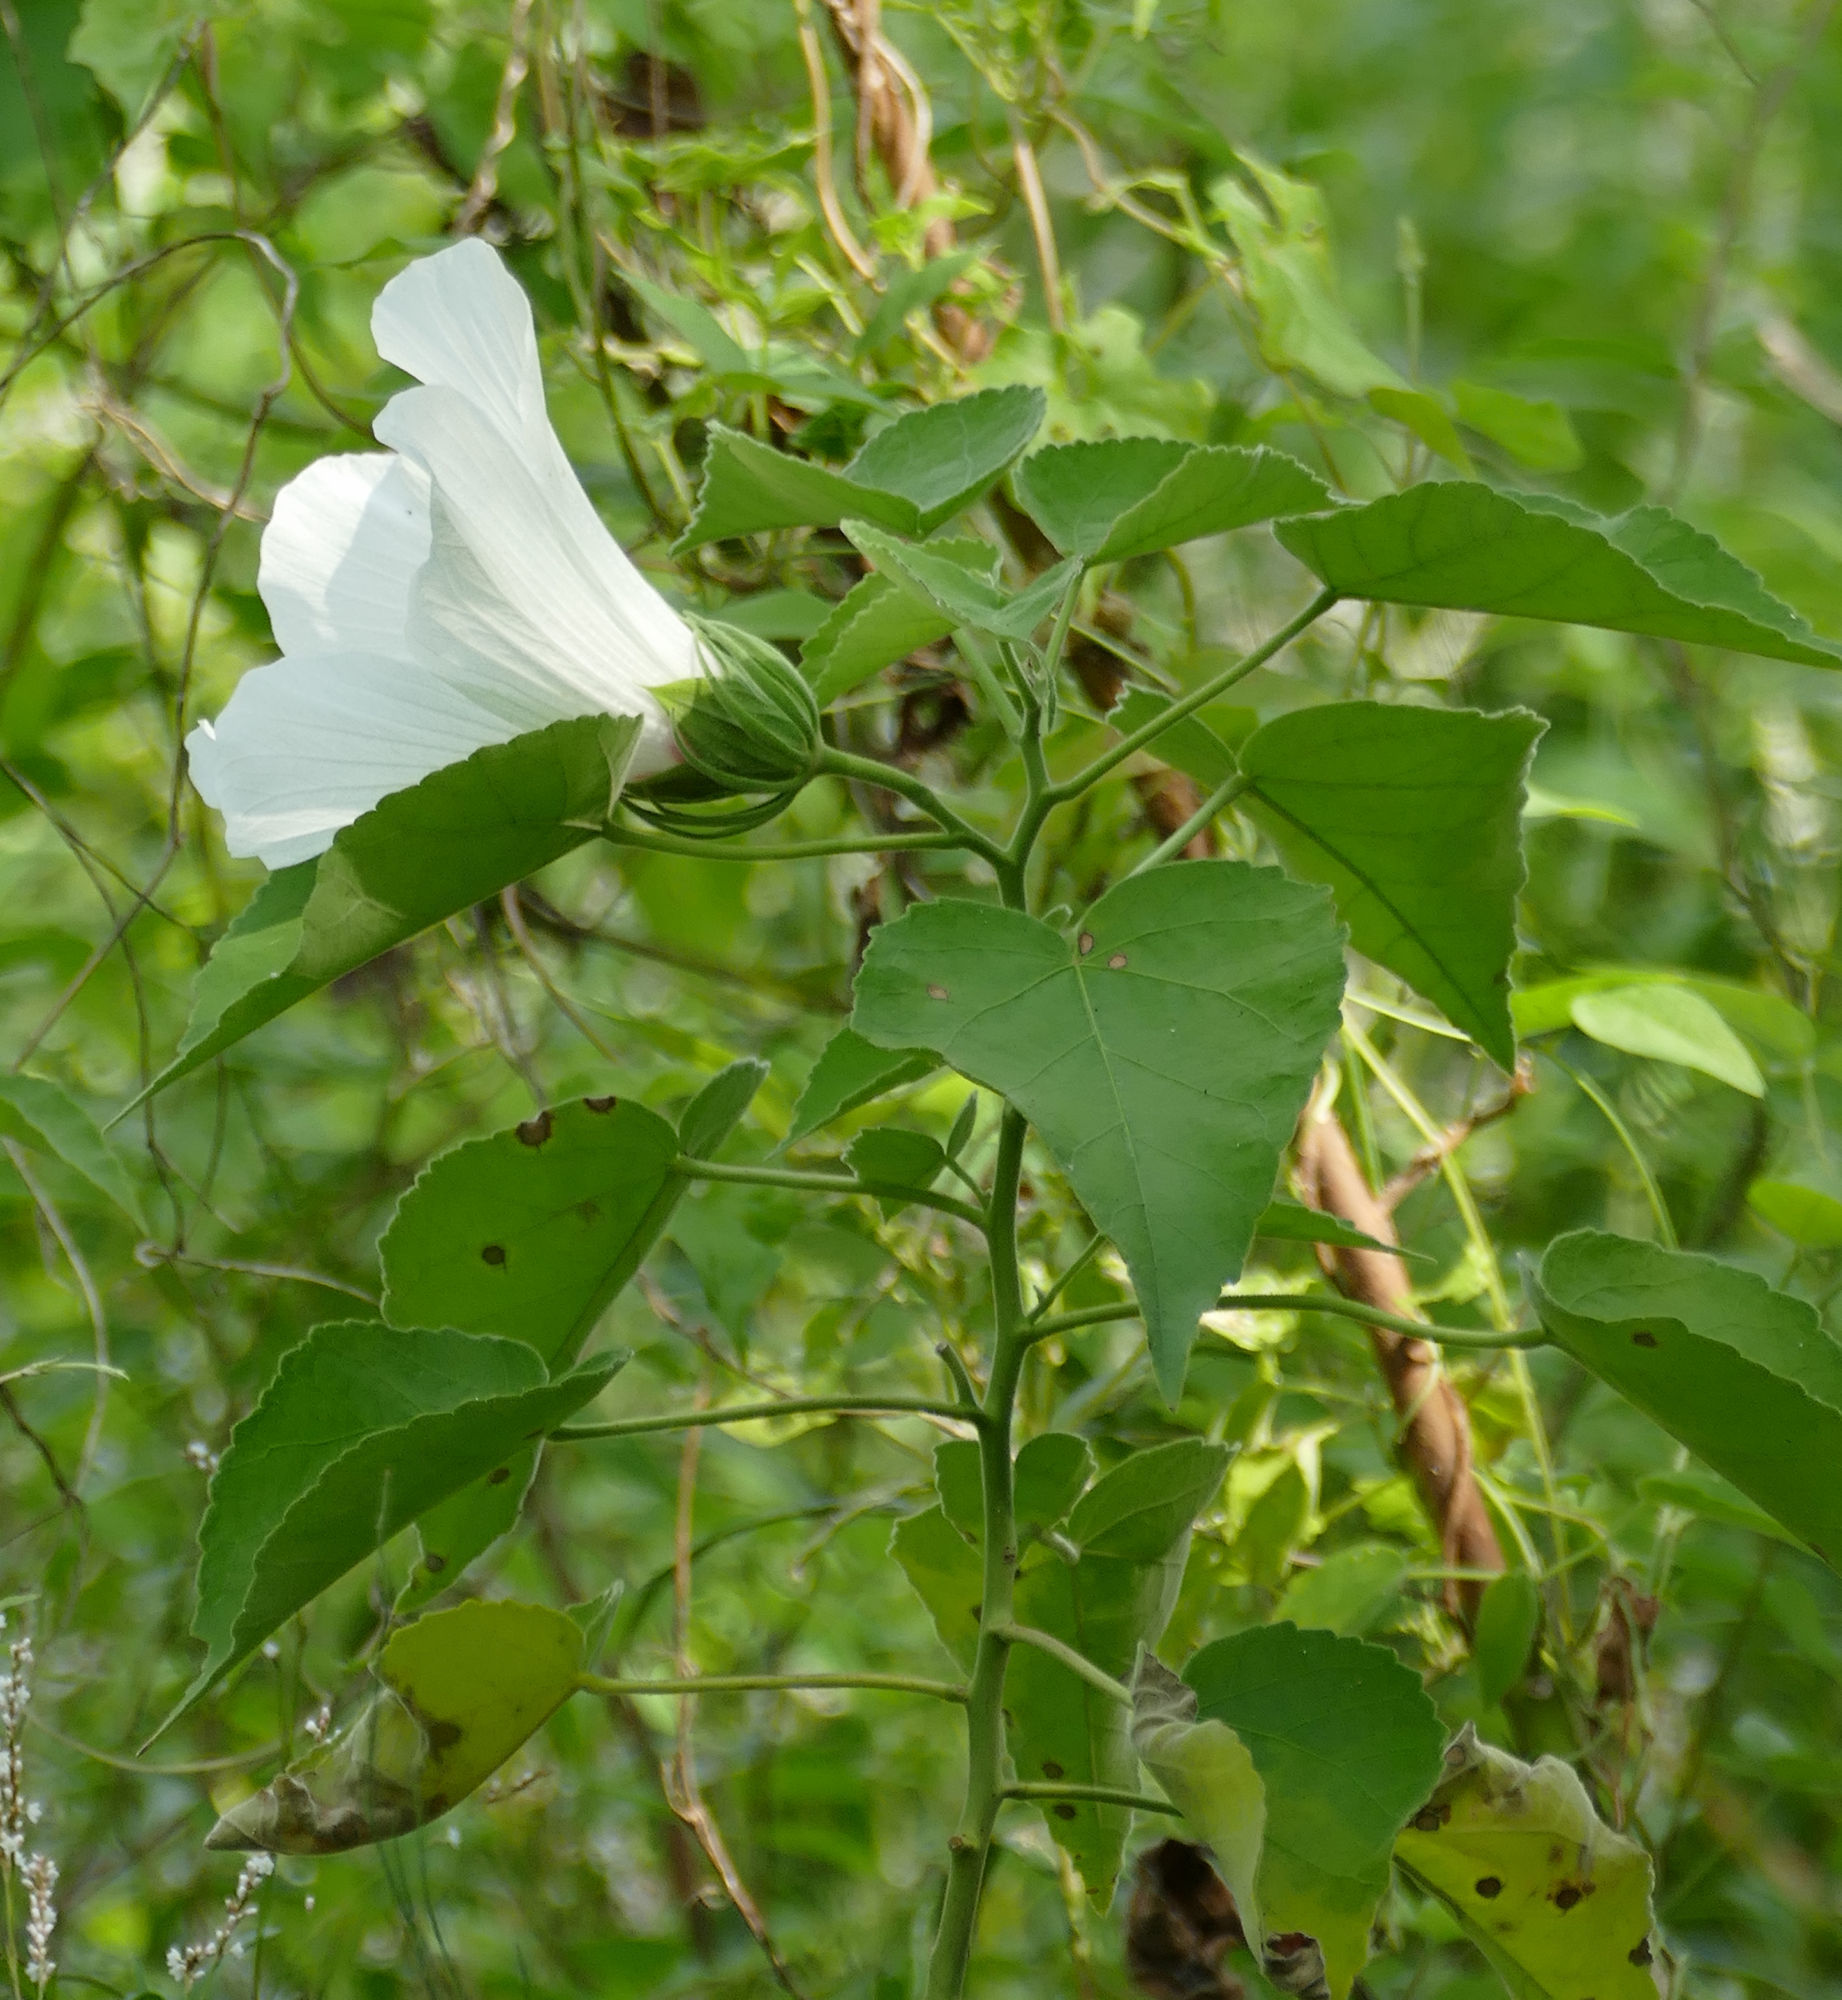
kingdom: Plantae
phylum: Tracheophyta
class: Magnoliopsida
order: Malvales
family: Malvaceae
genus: Hibiscus
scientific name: Hibiscus moscheutos
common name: Common rose-mallow
